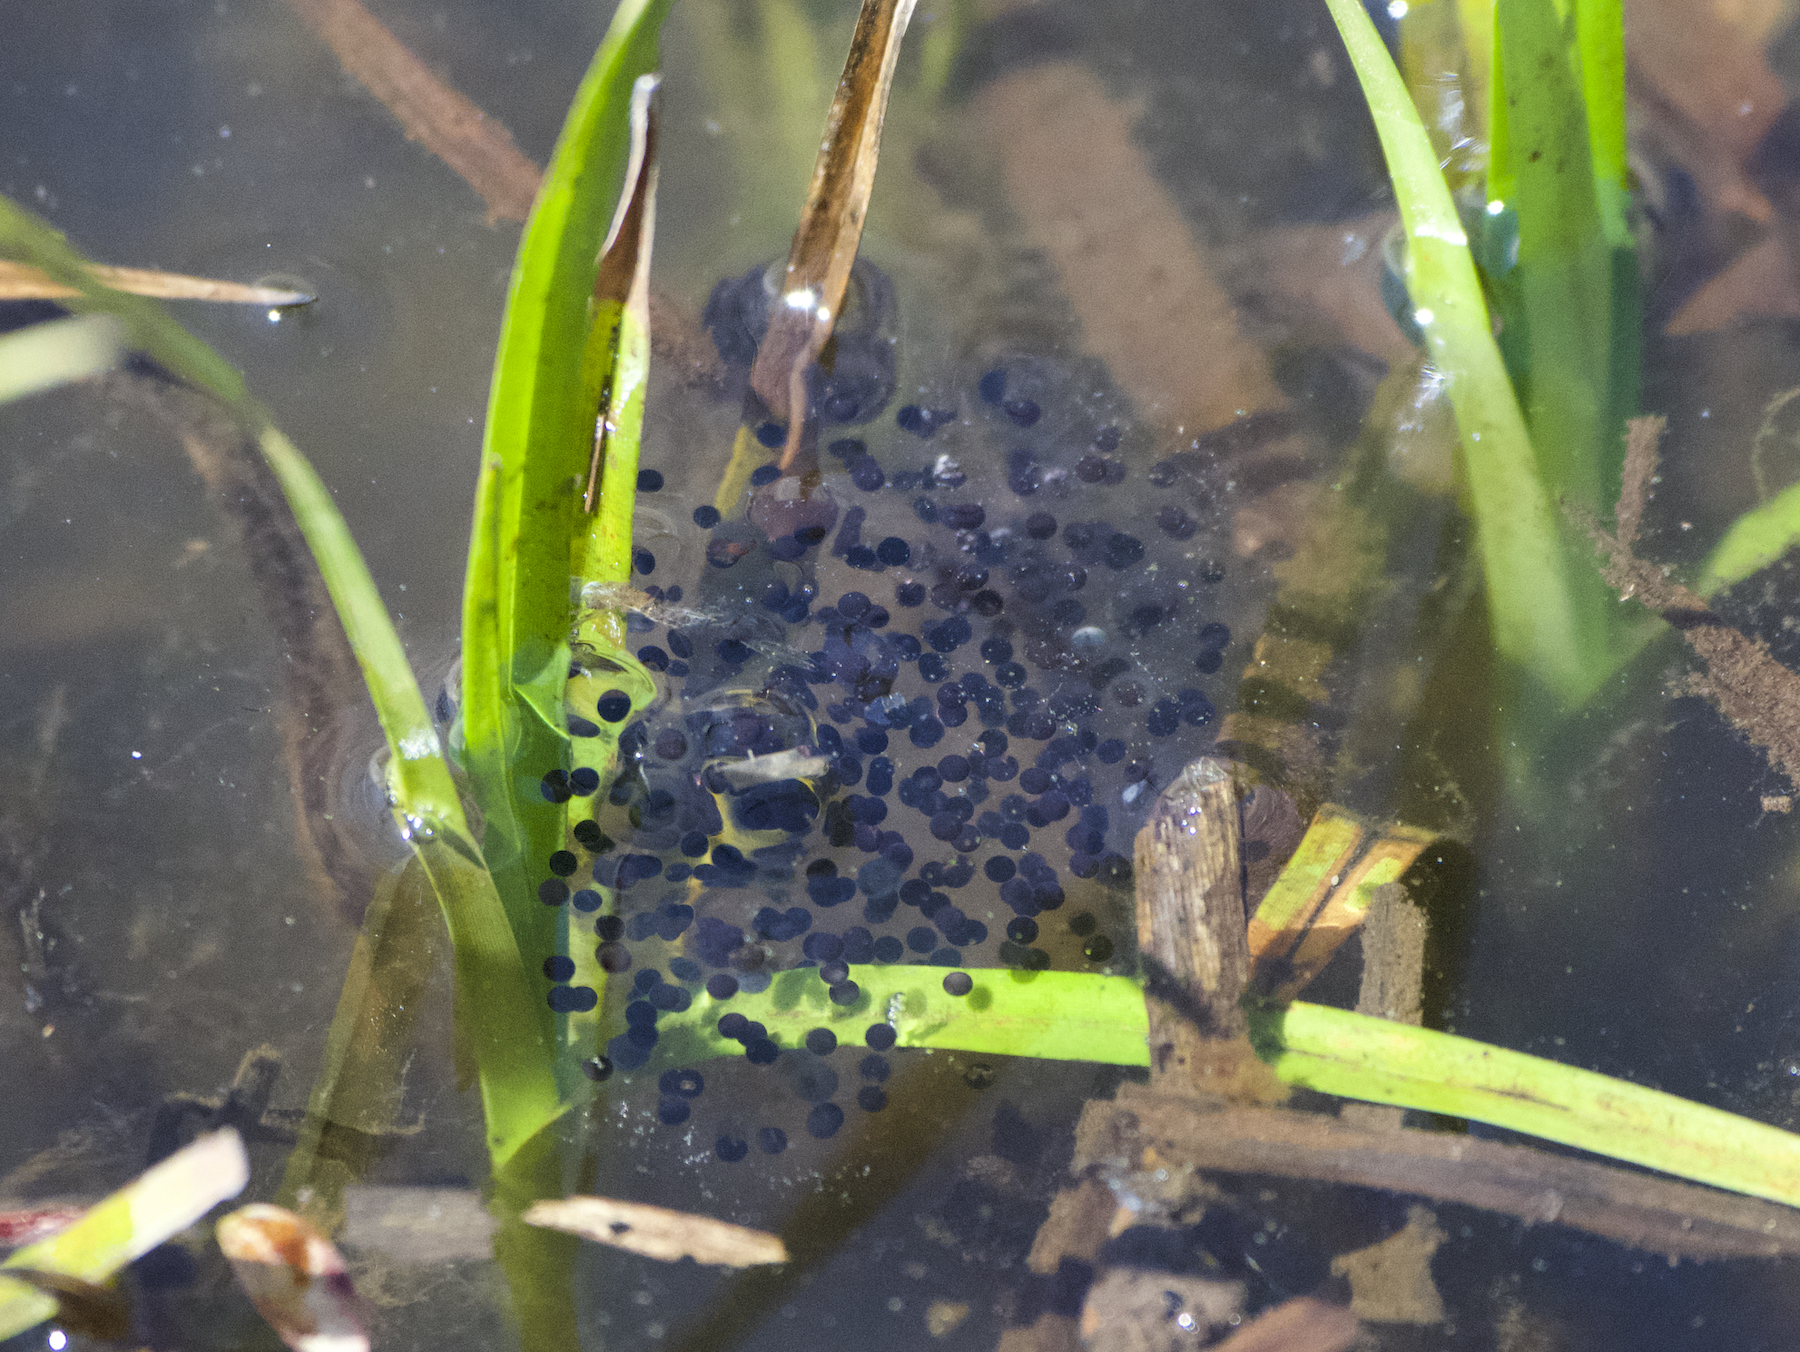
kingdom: Animalia
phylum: Chordata
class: Amphibia
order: Anura
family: Ranidae
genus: Rana
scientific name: Rana aurora
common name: Red-legged frog
